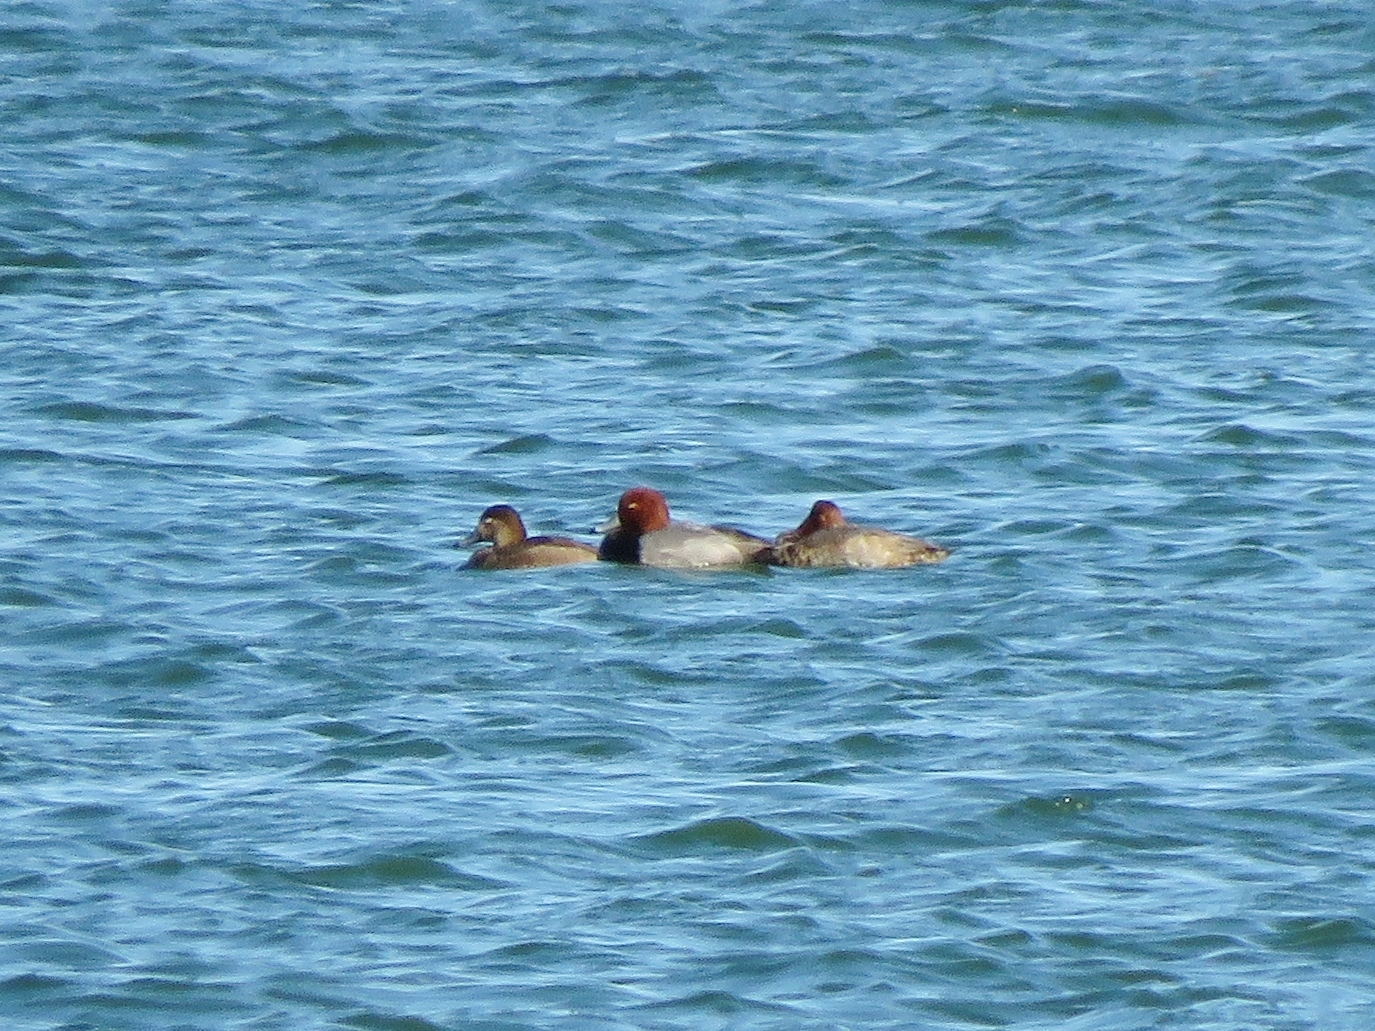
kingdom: Animalia
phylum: Chordata
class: Aves
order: Anseriformes
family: Anatidae
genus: Aythya
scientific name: Aythya americana
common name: Redhead
